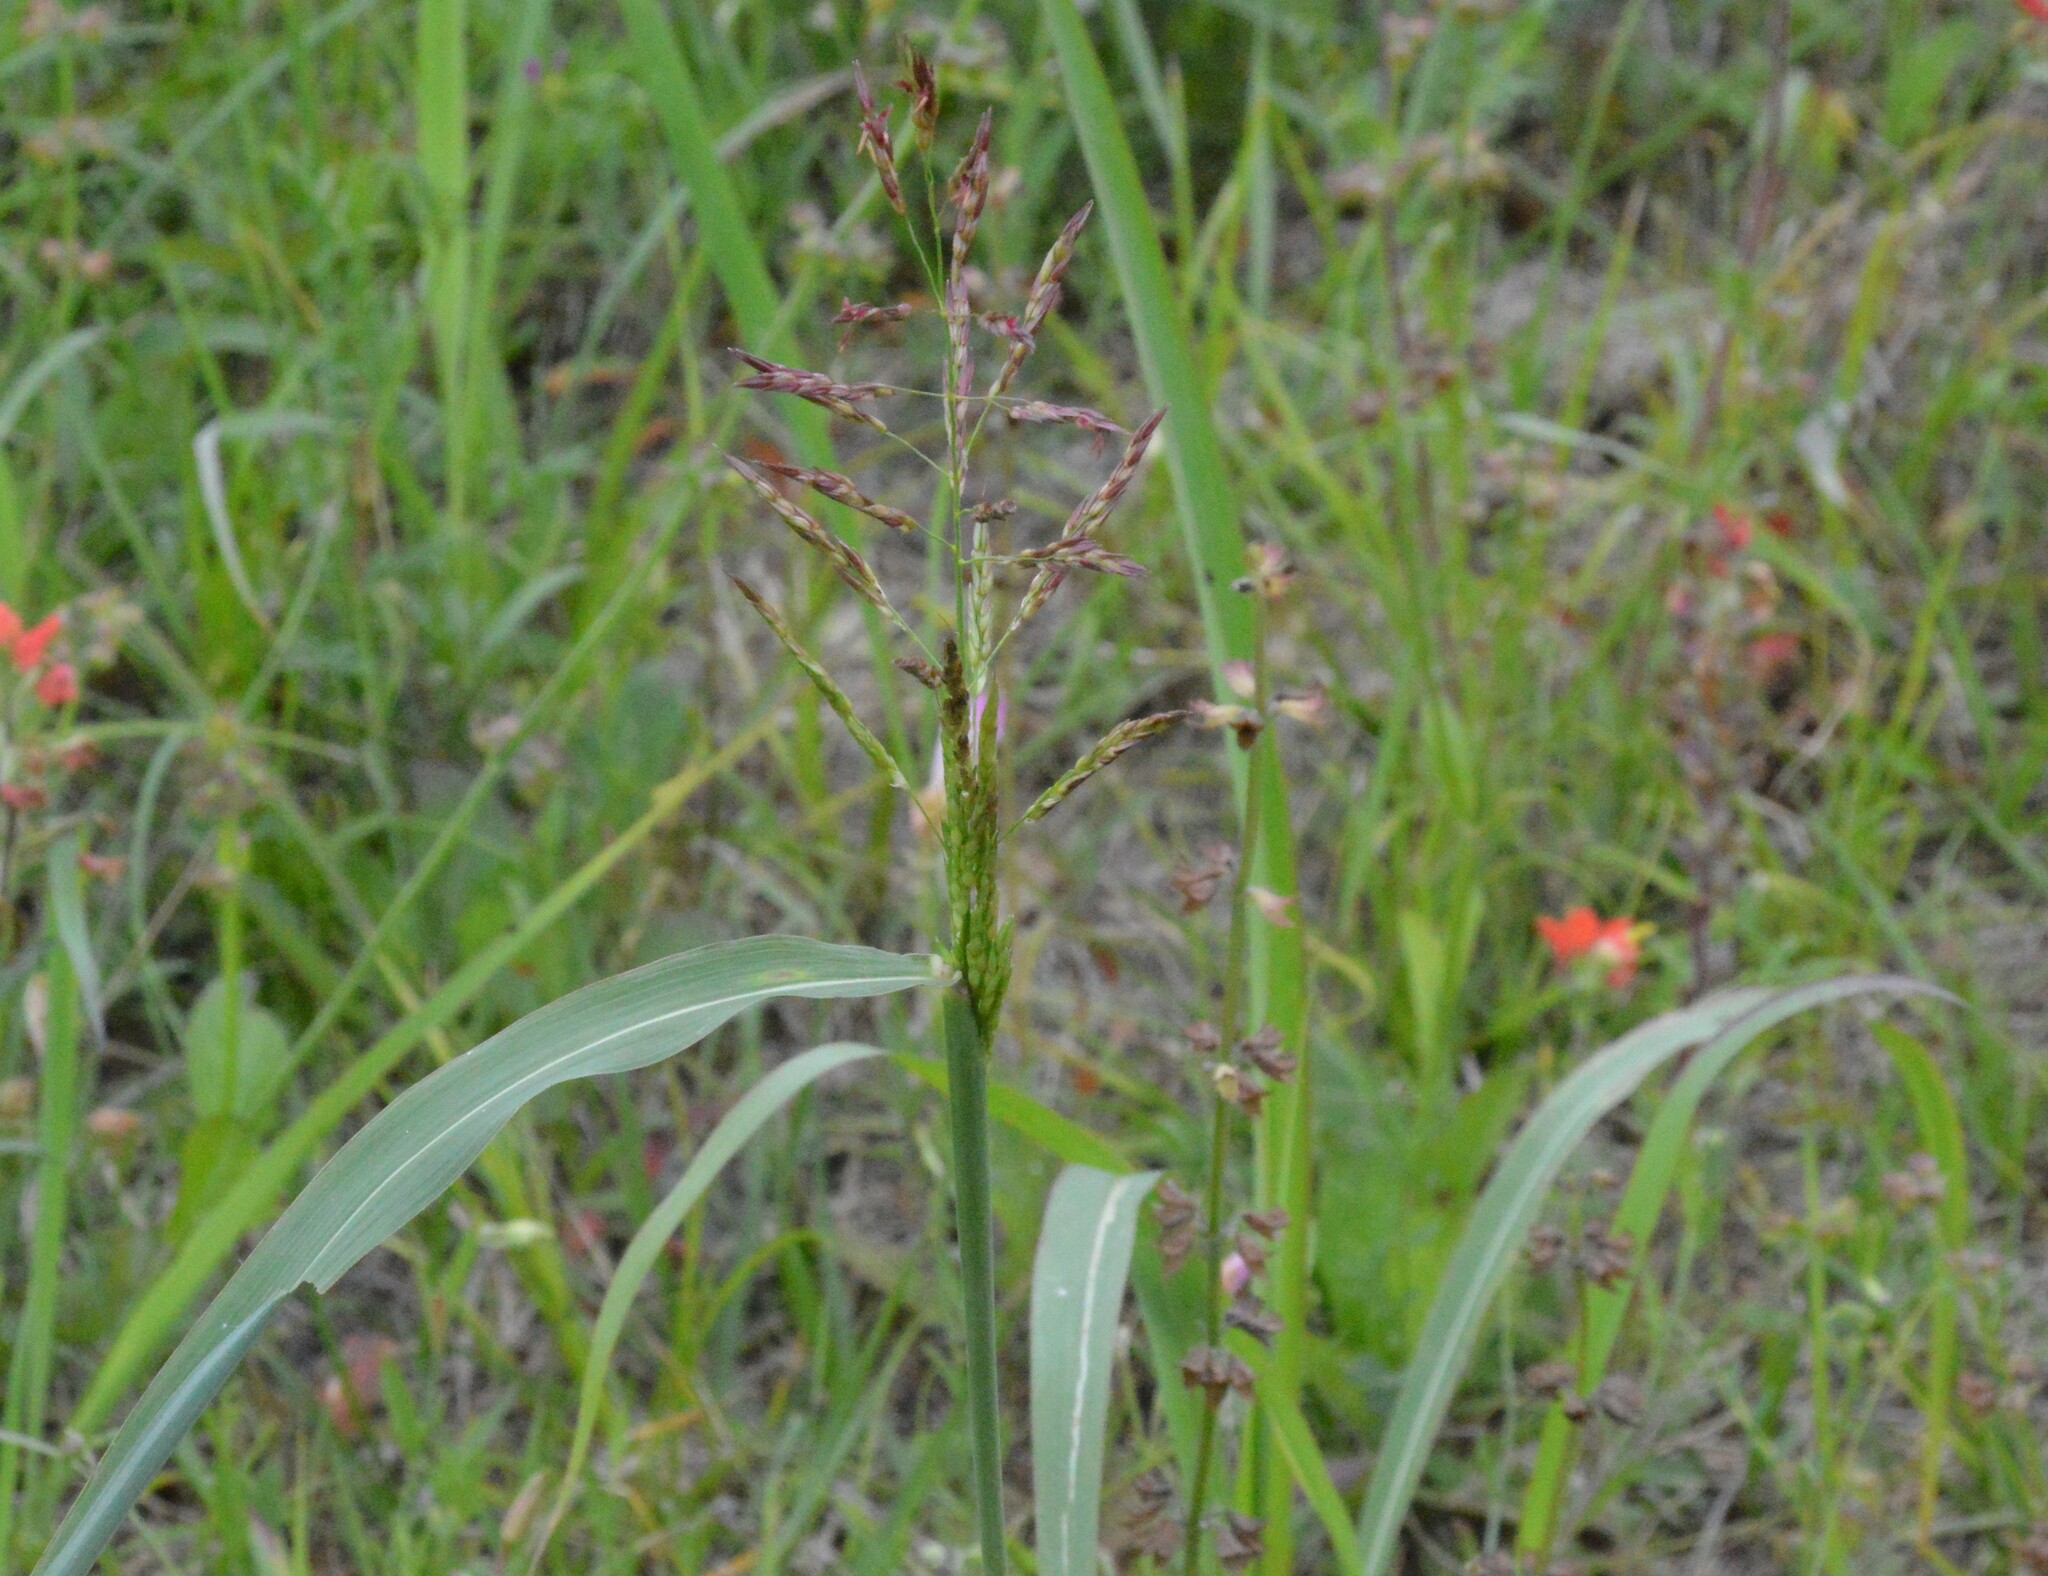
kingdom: Plantae
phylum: Tracheophyta
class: Liliopsida
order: Poales
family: Poaceae
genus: Sorghum
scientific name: Sorghum halepense
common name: Johnson-grass
